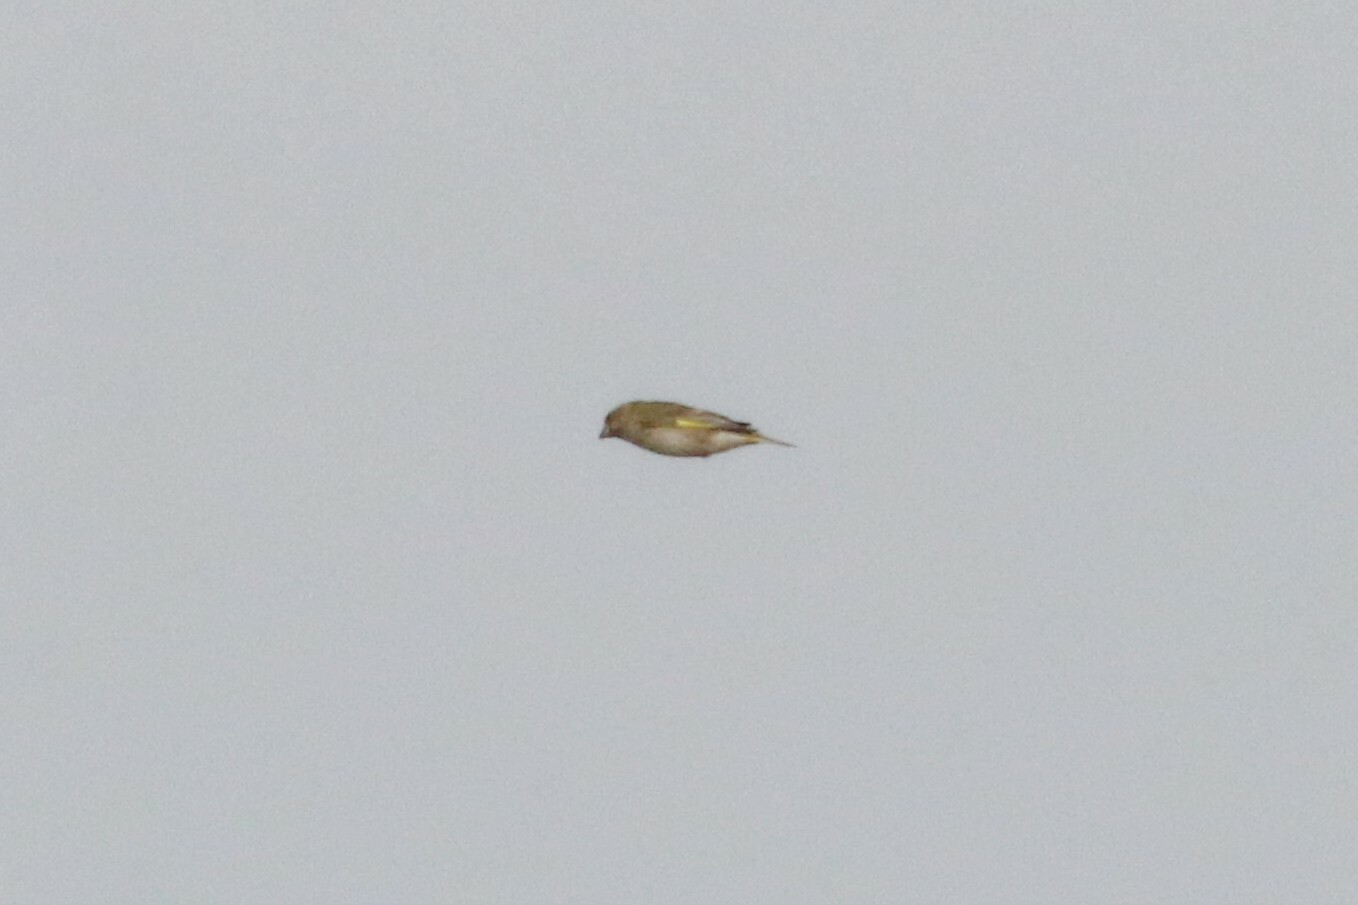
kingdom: Plantae
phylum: Tracheophyta
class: Liliopsida
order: Poales
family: Poaceae
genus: Chloris
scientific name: Chloris chloris
